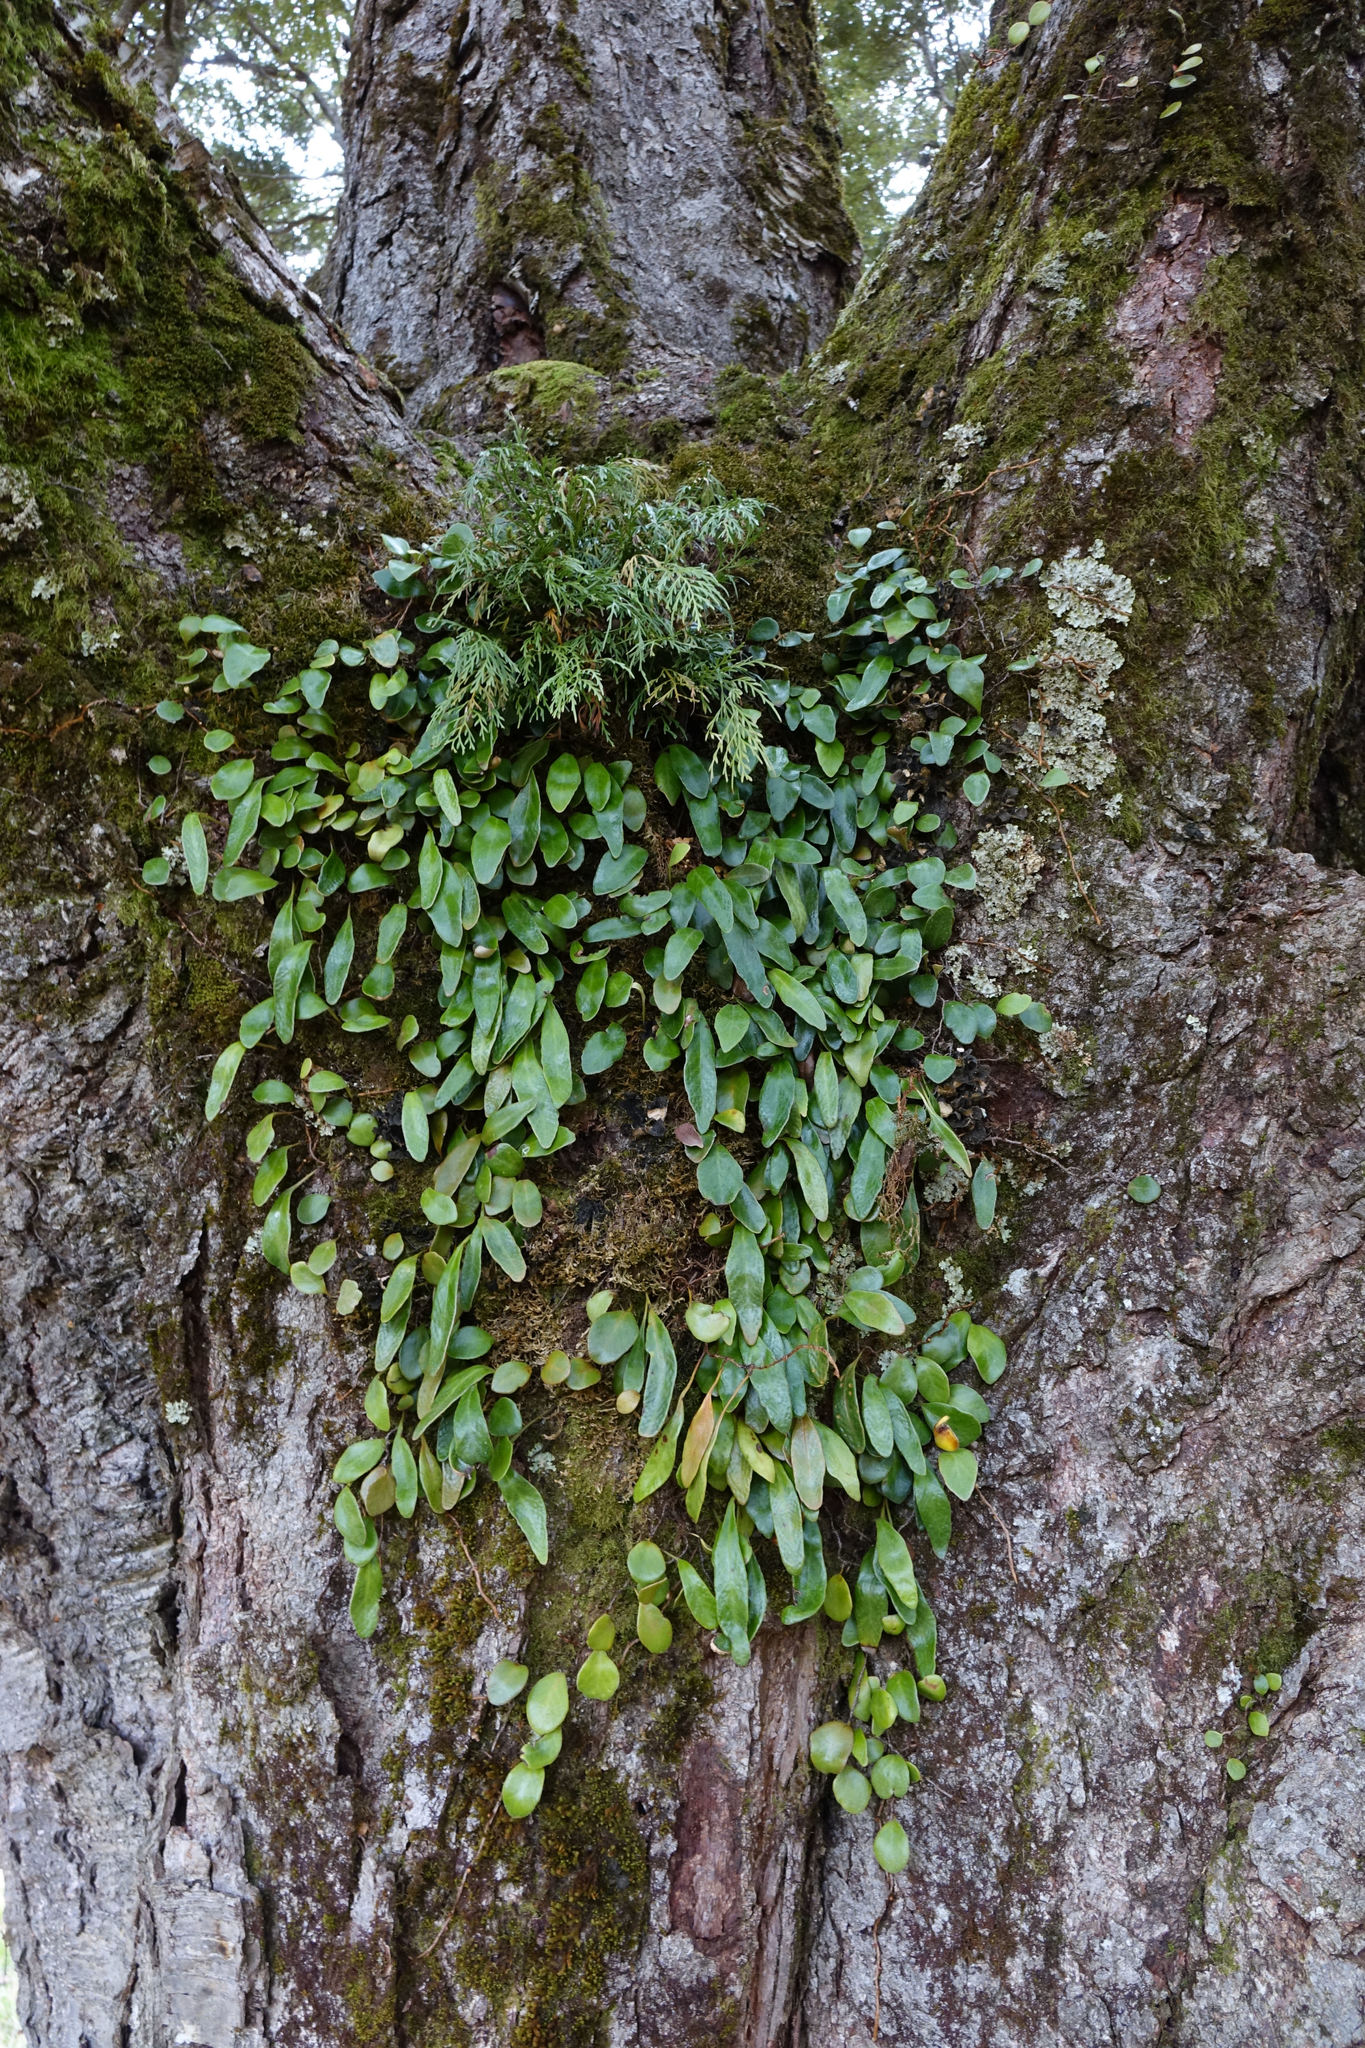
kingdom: Plantae
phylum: Tracheophyta
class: Polypodiopsida
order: Polypodiales
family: Polypodiaceae
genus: Pyrrosia
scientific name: Pyrrosia eleagnifolia
